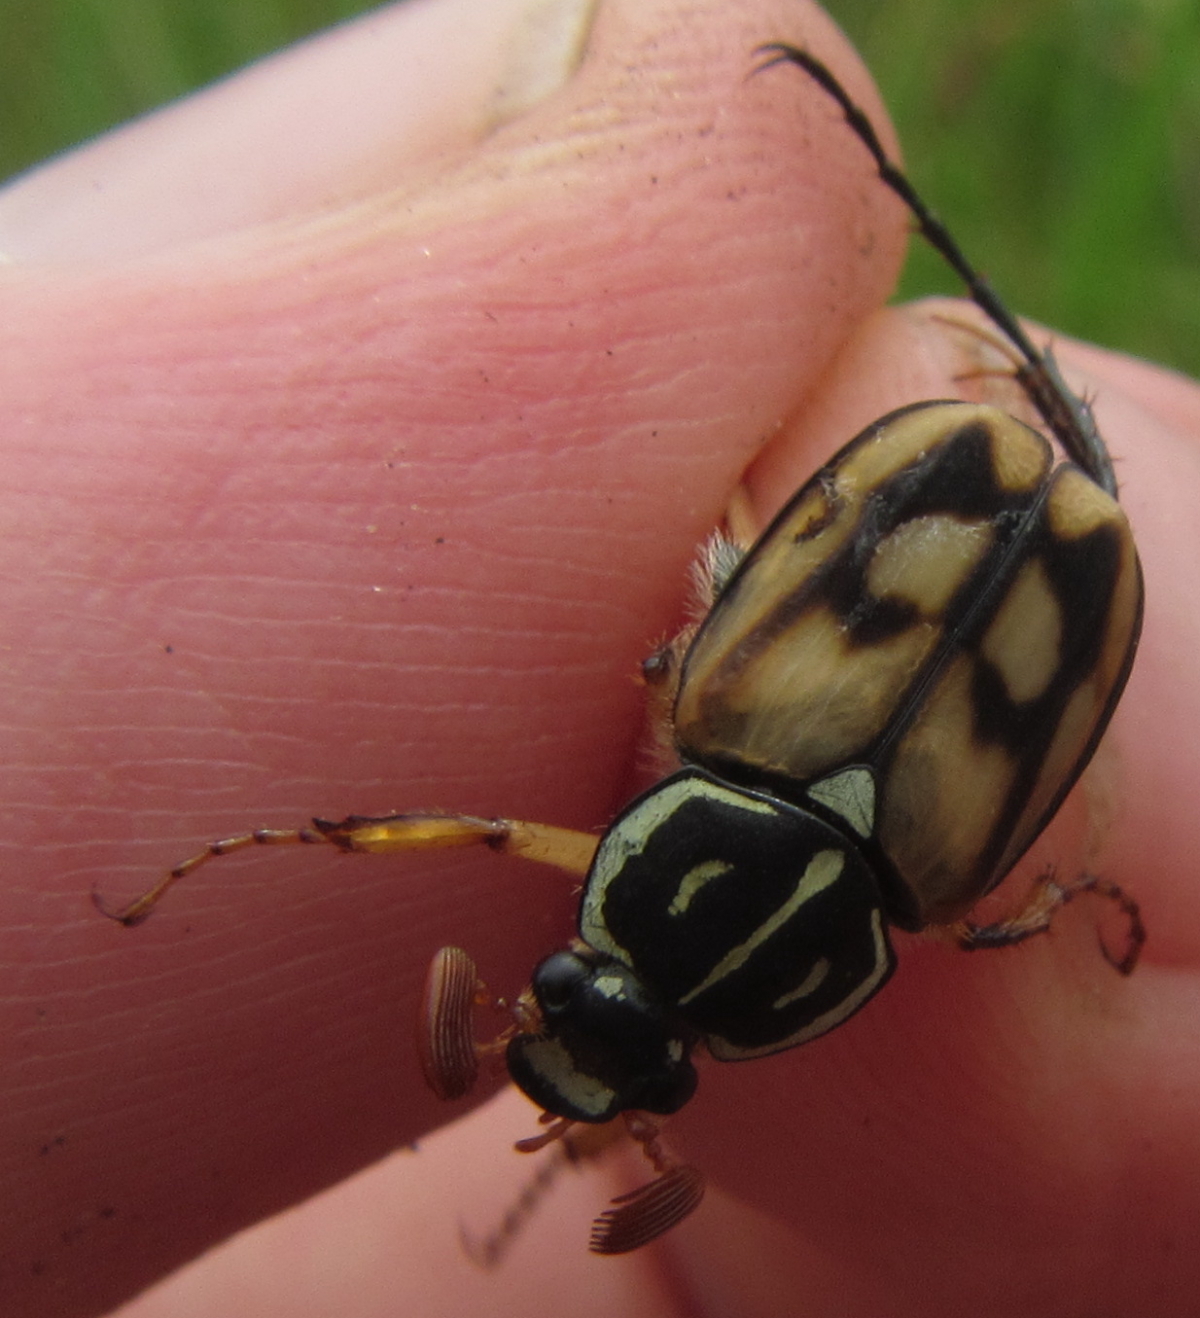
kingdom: Animalia
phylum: Arthropoda
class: Insecta
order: Coleoptera
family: Scarabaeidae
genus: Stripsipher
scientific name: Stripsipher lamellatus
